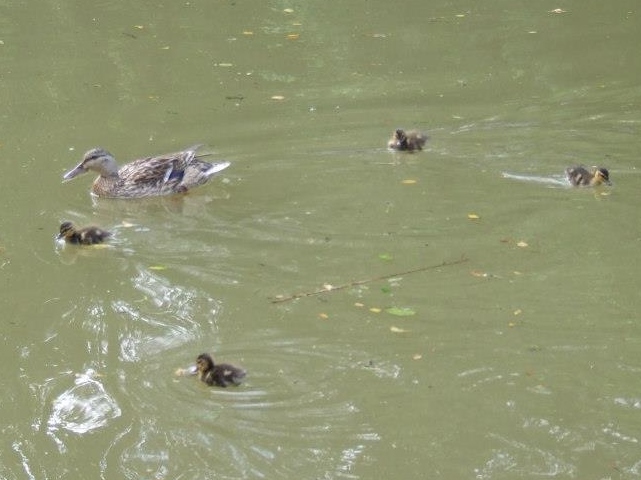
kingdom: Animalia
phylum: Chordata
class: Aves
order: Anseriformes
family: Anatidae
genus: Anas
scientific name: Anas platyrhynchos
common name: Mallard
